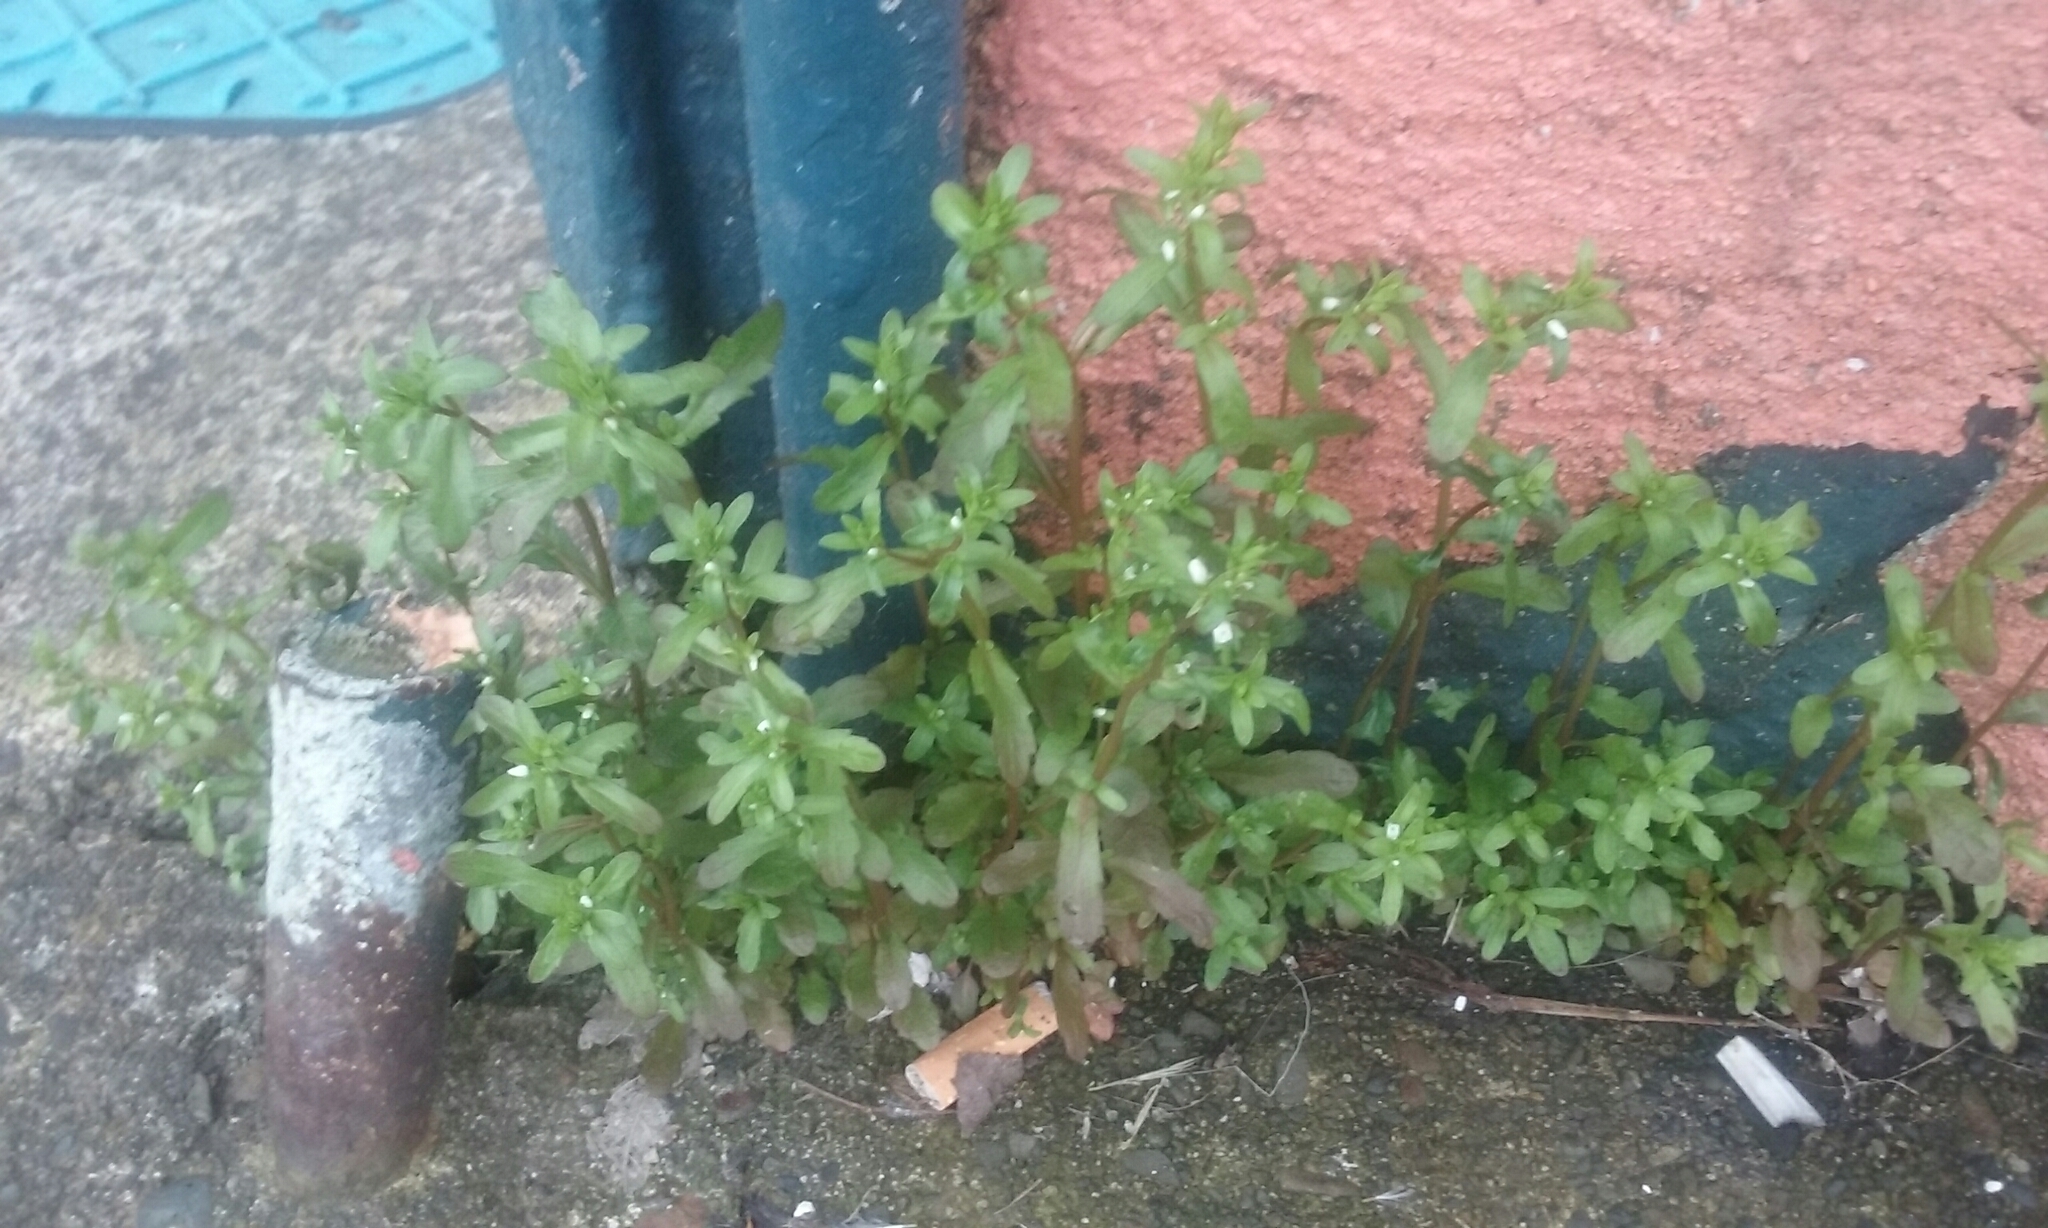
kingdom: Plantae
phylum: Tracheophyta
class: Magnoliopsida
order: Lamiales
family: Plantaginaceae
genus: Veronica
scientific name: Veronica peregrina
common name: Neckweed
